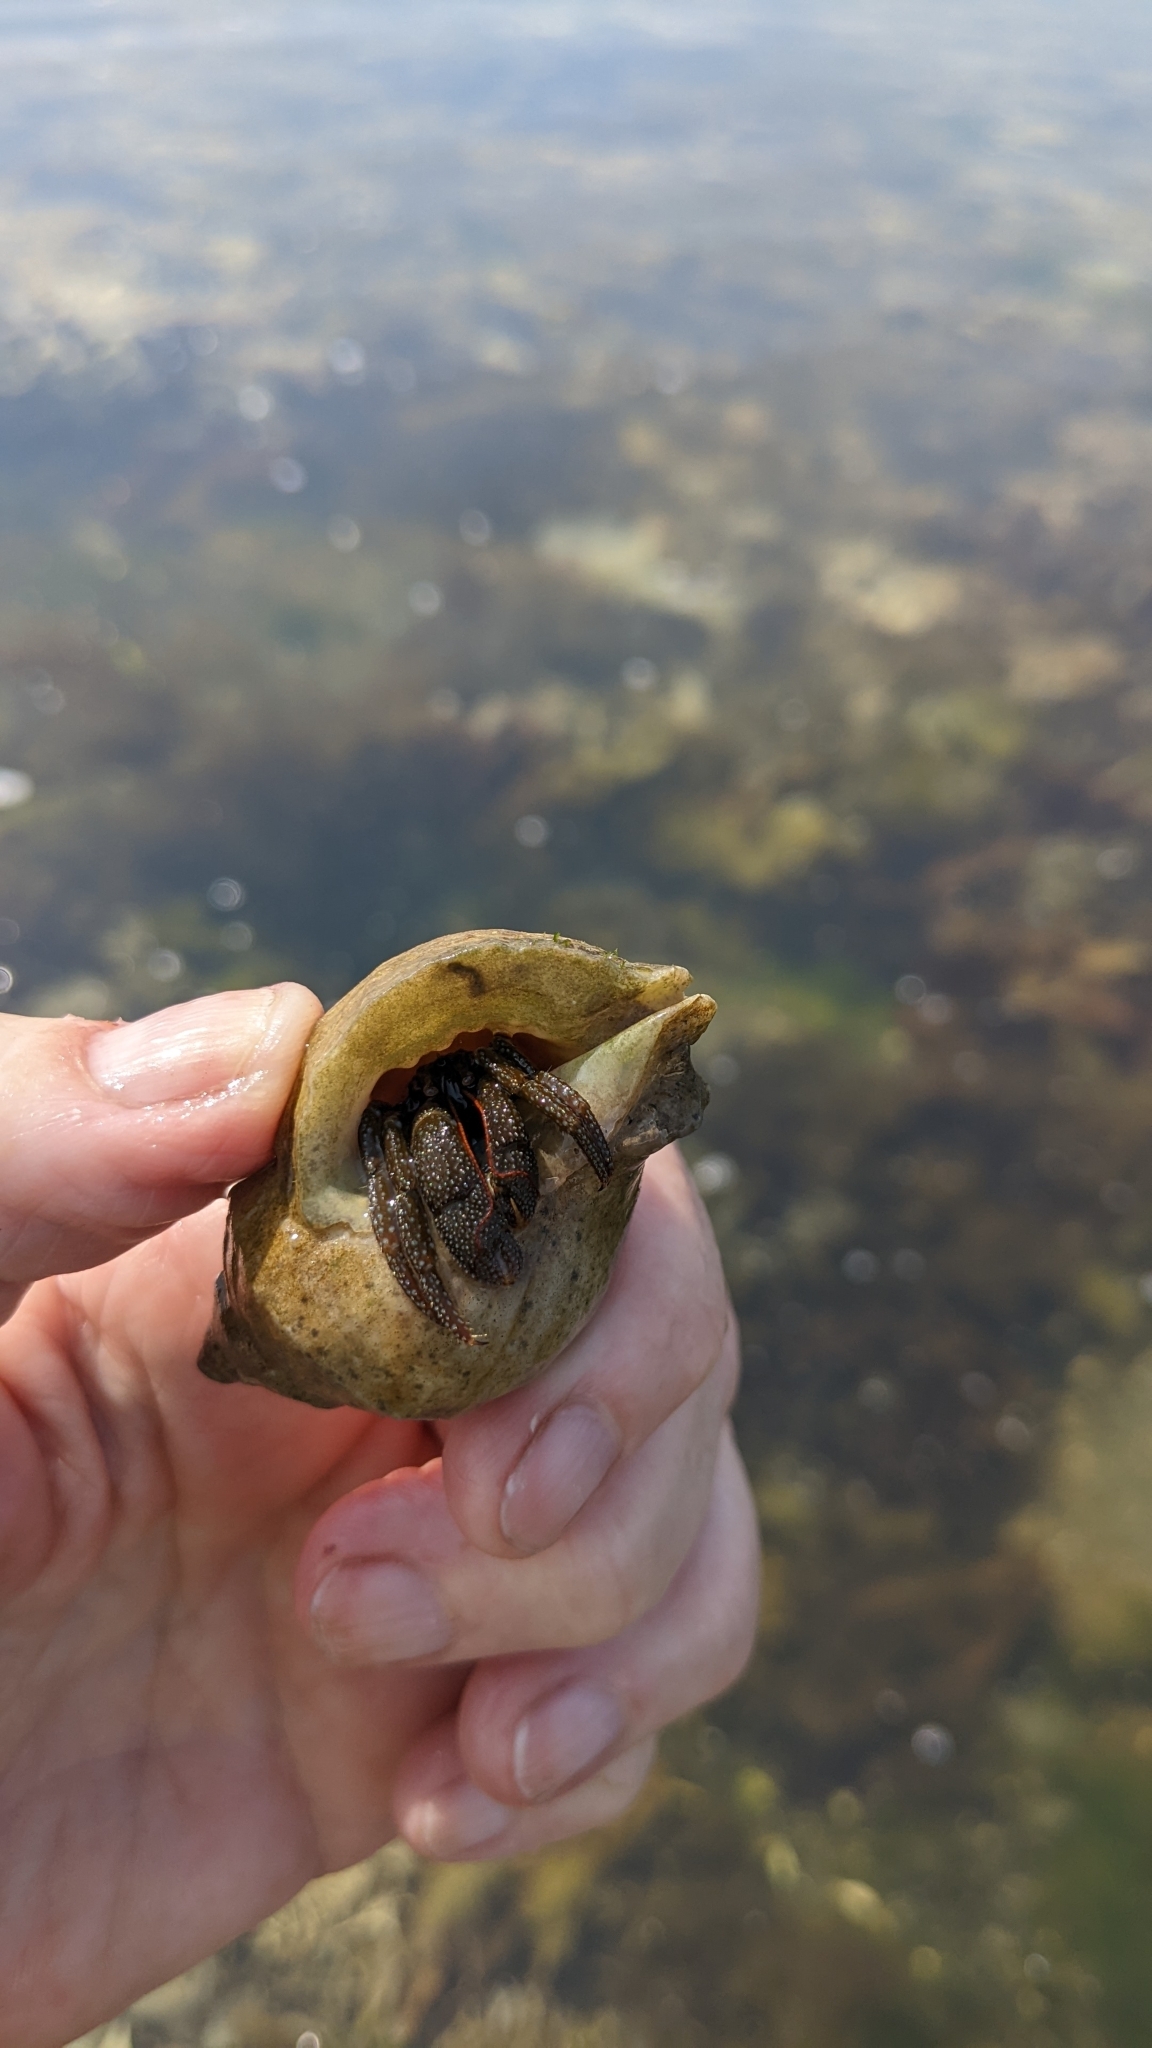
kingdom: Animalia
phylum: Arthropoda
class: Malacostraca
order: Decapoda
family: Paguridae
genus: Pagurus
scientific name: Pagurus granosimanus
